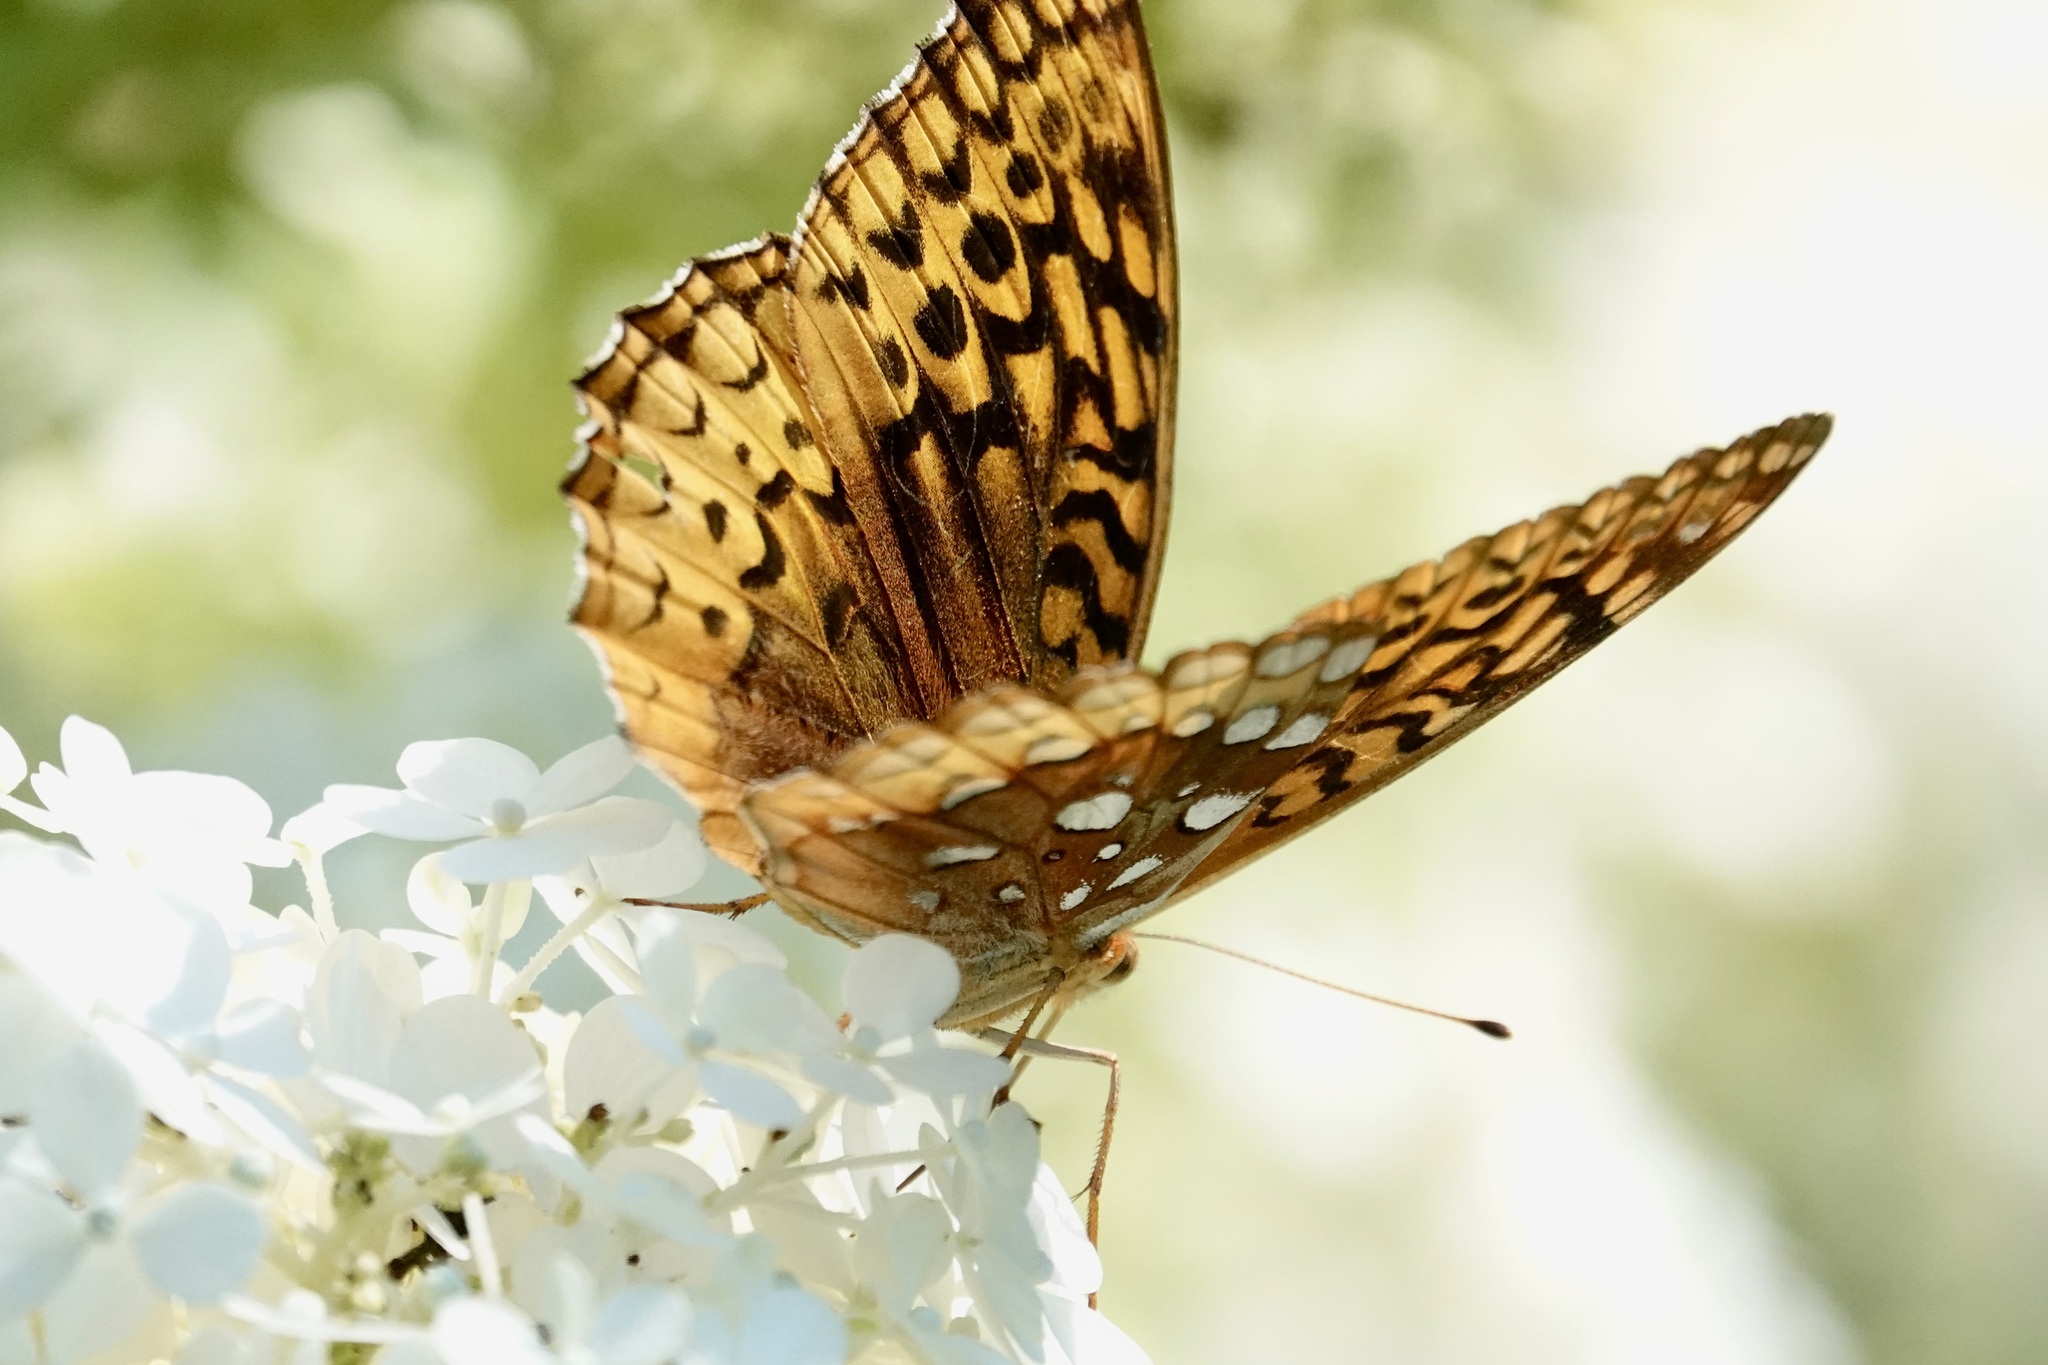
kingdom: Animalia
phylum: Arthropoda
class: Insecta
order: Lepidoptera
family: Nymphalidae
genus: Speyeria
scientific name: Speyeria cybele
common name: Great spangled fritillary
